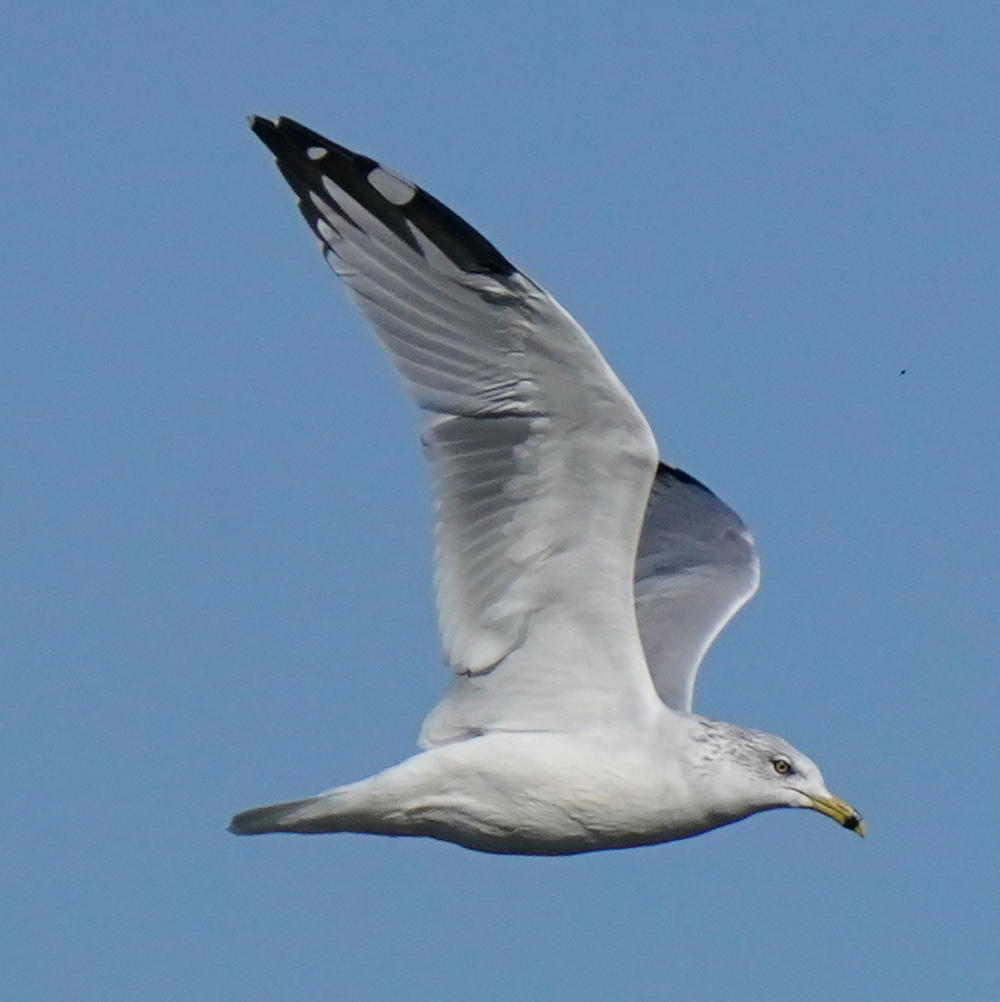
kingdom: Animalia
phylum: Chordata
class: Aves
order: Charadriiformes
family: Laridae
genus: Larus
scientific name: Larus delawarensis
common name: Ring-billed gull
